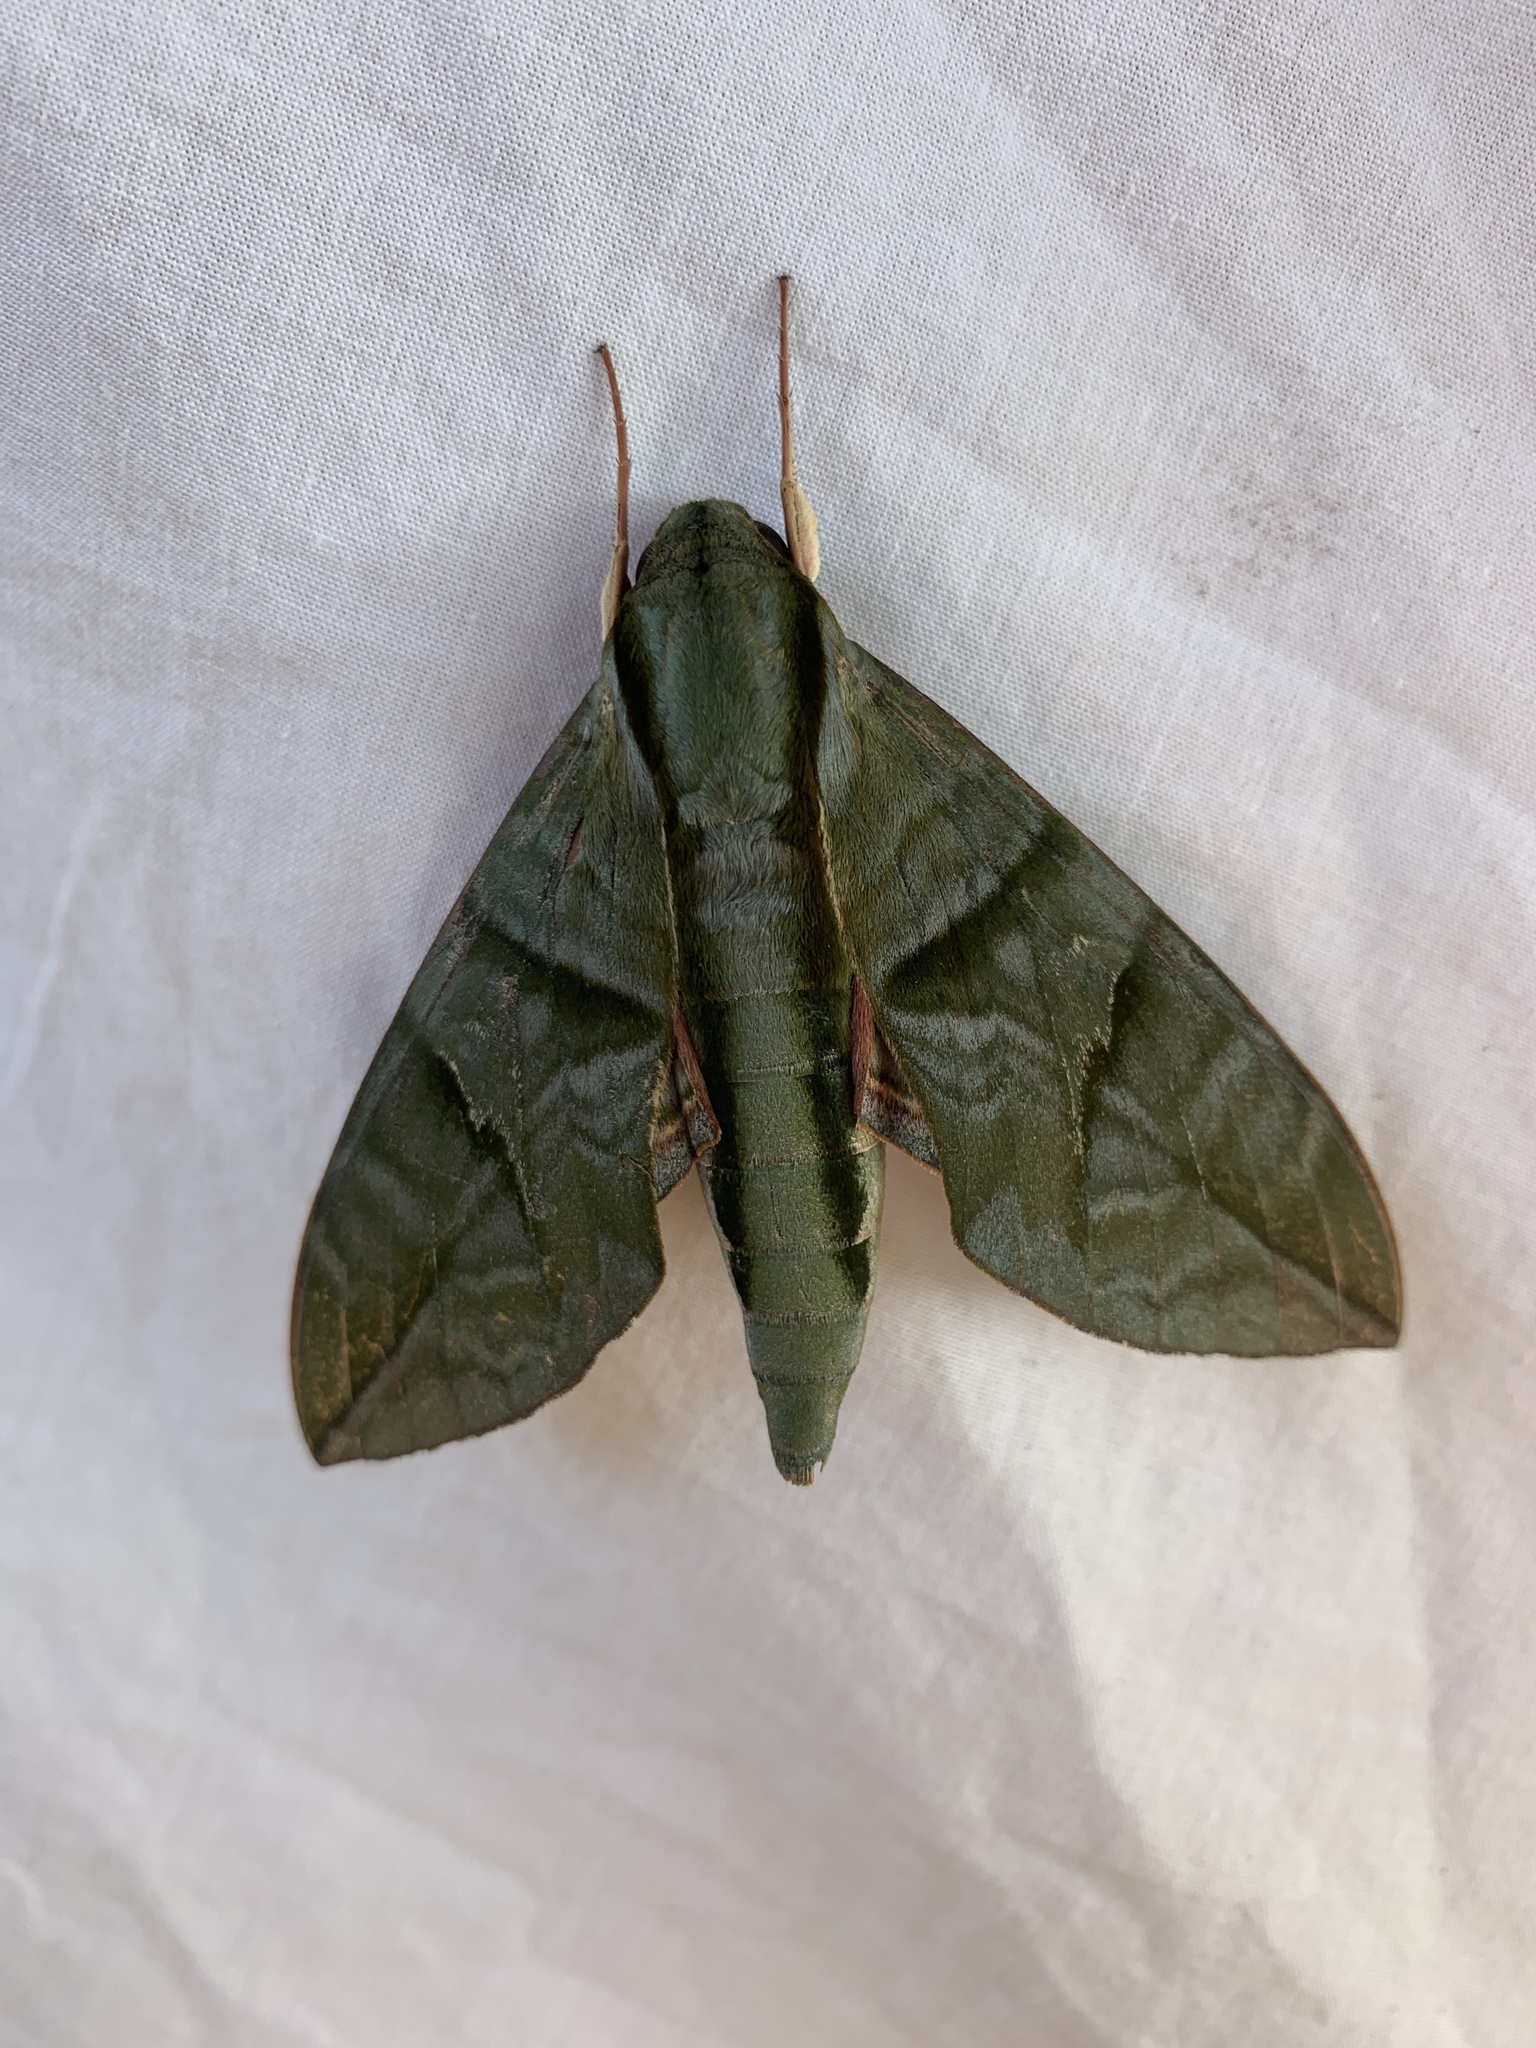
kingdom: Animalia
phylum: Arthropoda
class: Insecta
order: Lepidoptera
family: Sphingidae
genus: Eumorpha
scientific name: Eumorpha phorbas
